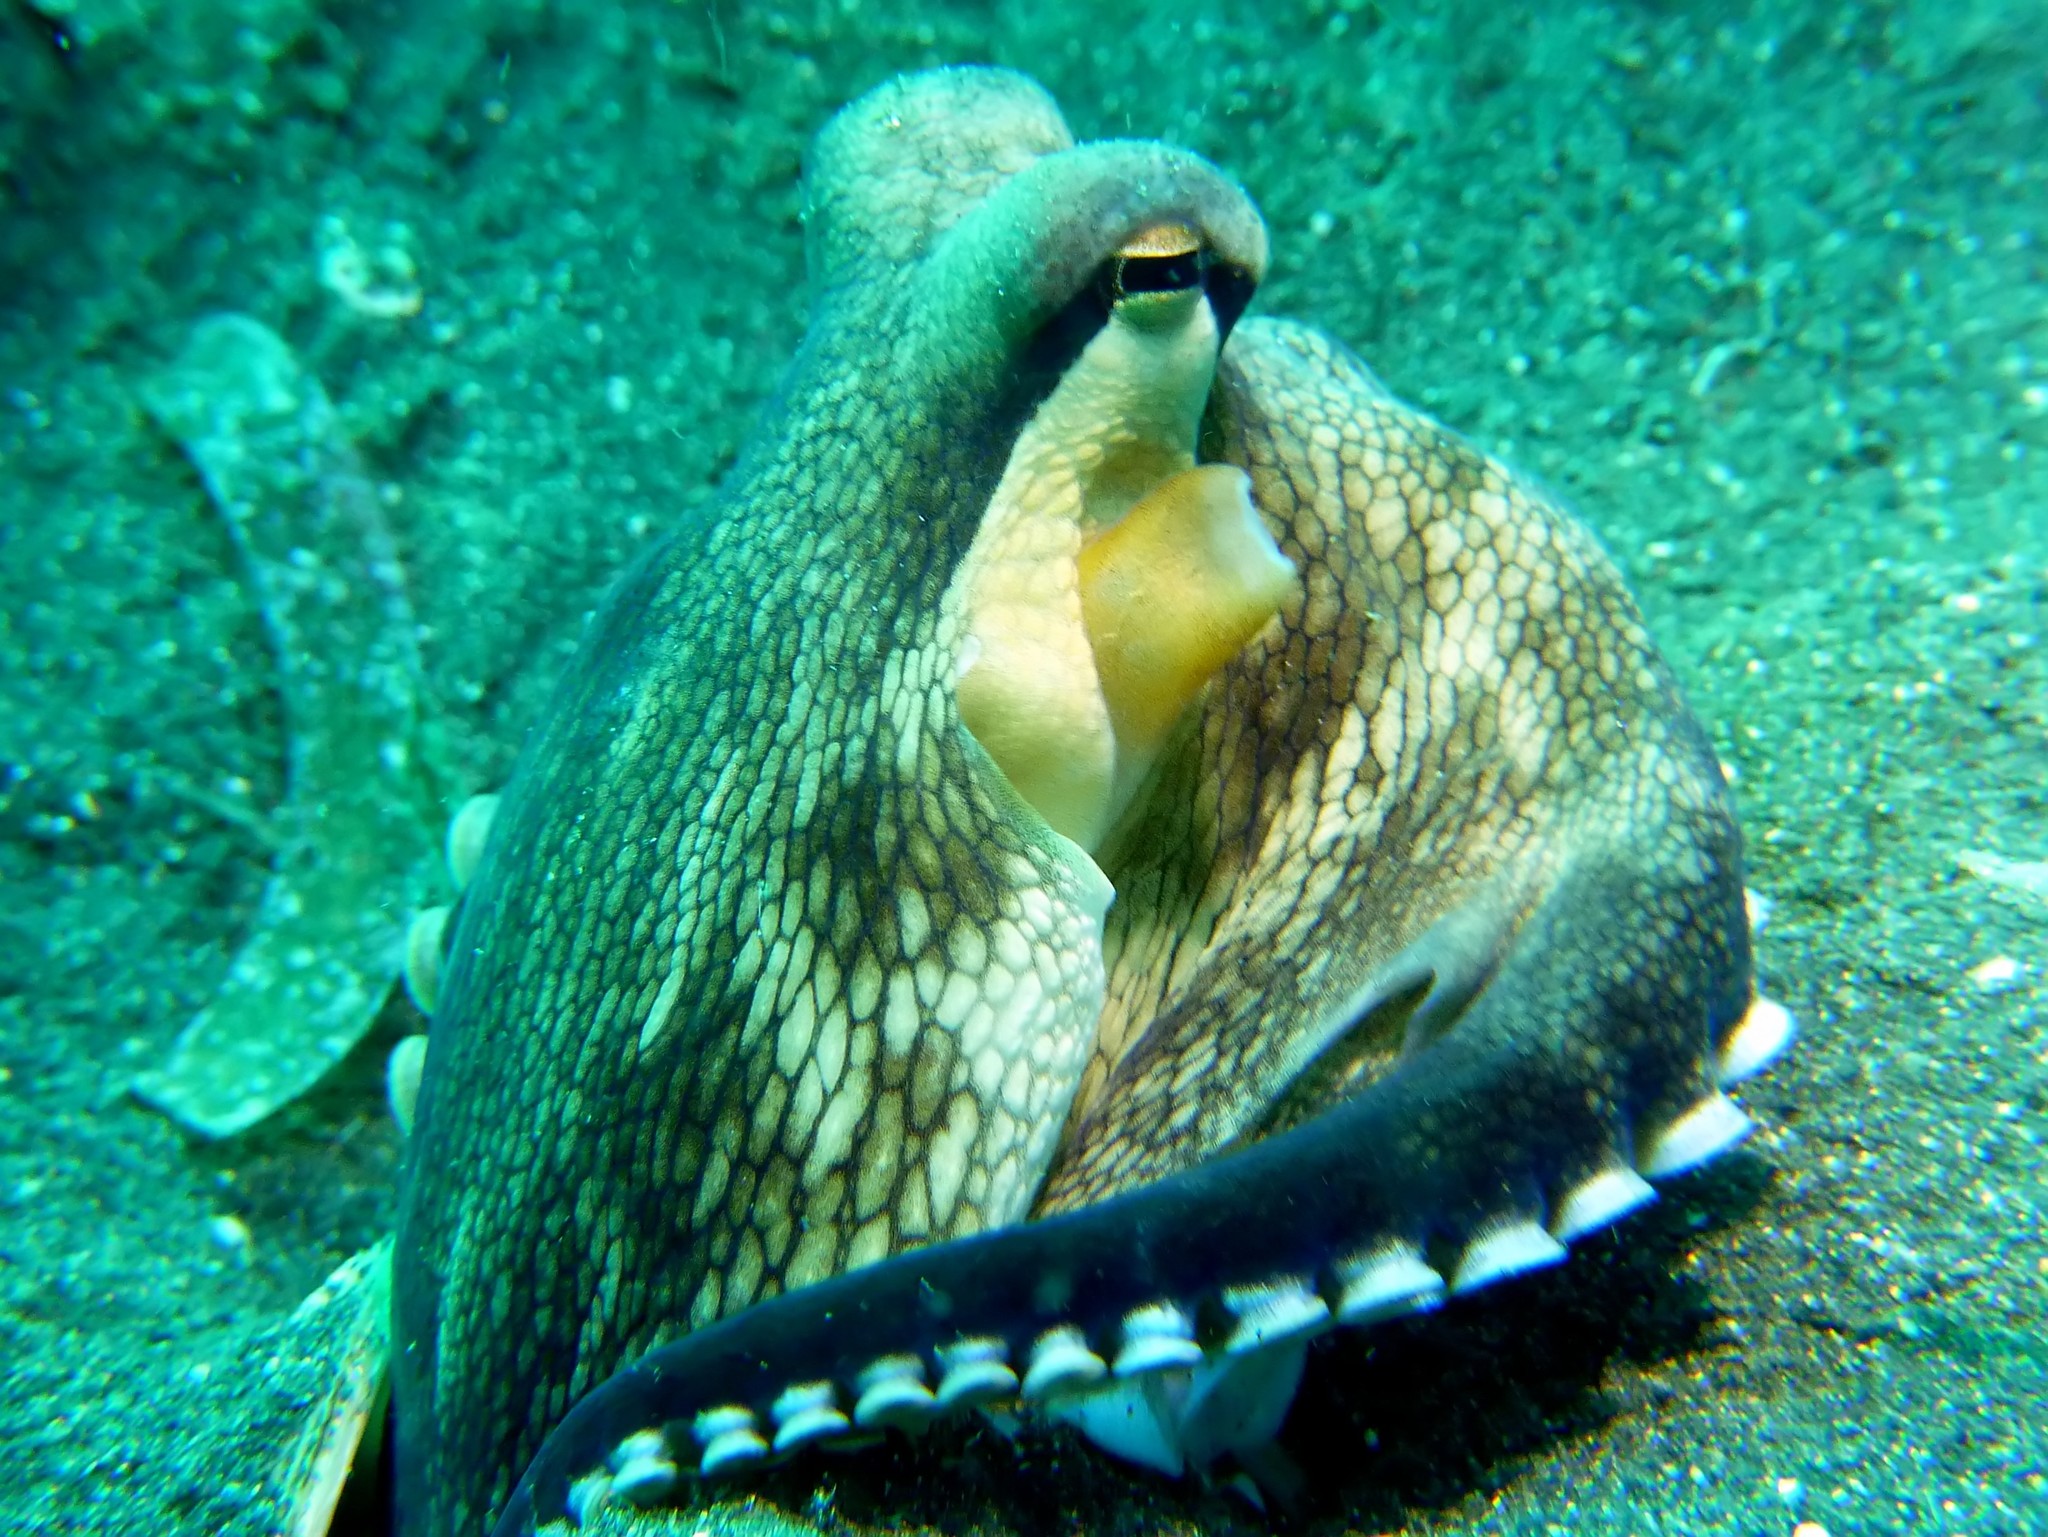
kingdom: Animalia
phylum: Mollusca
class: Cephalopoda
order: Octopoda
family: Octopodidae
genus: Amphioctopus
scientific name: Amphioctopus marginatus
